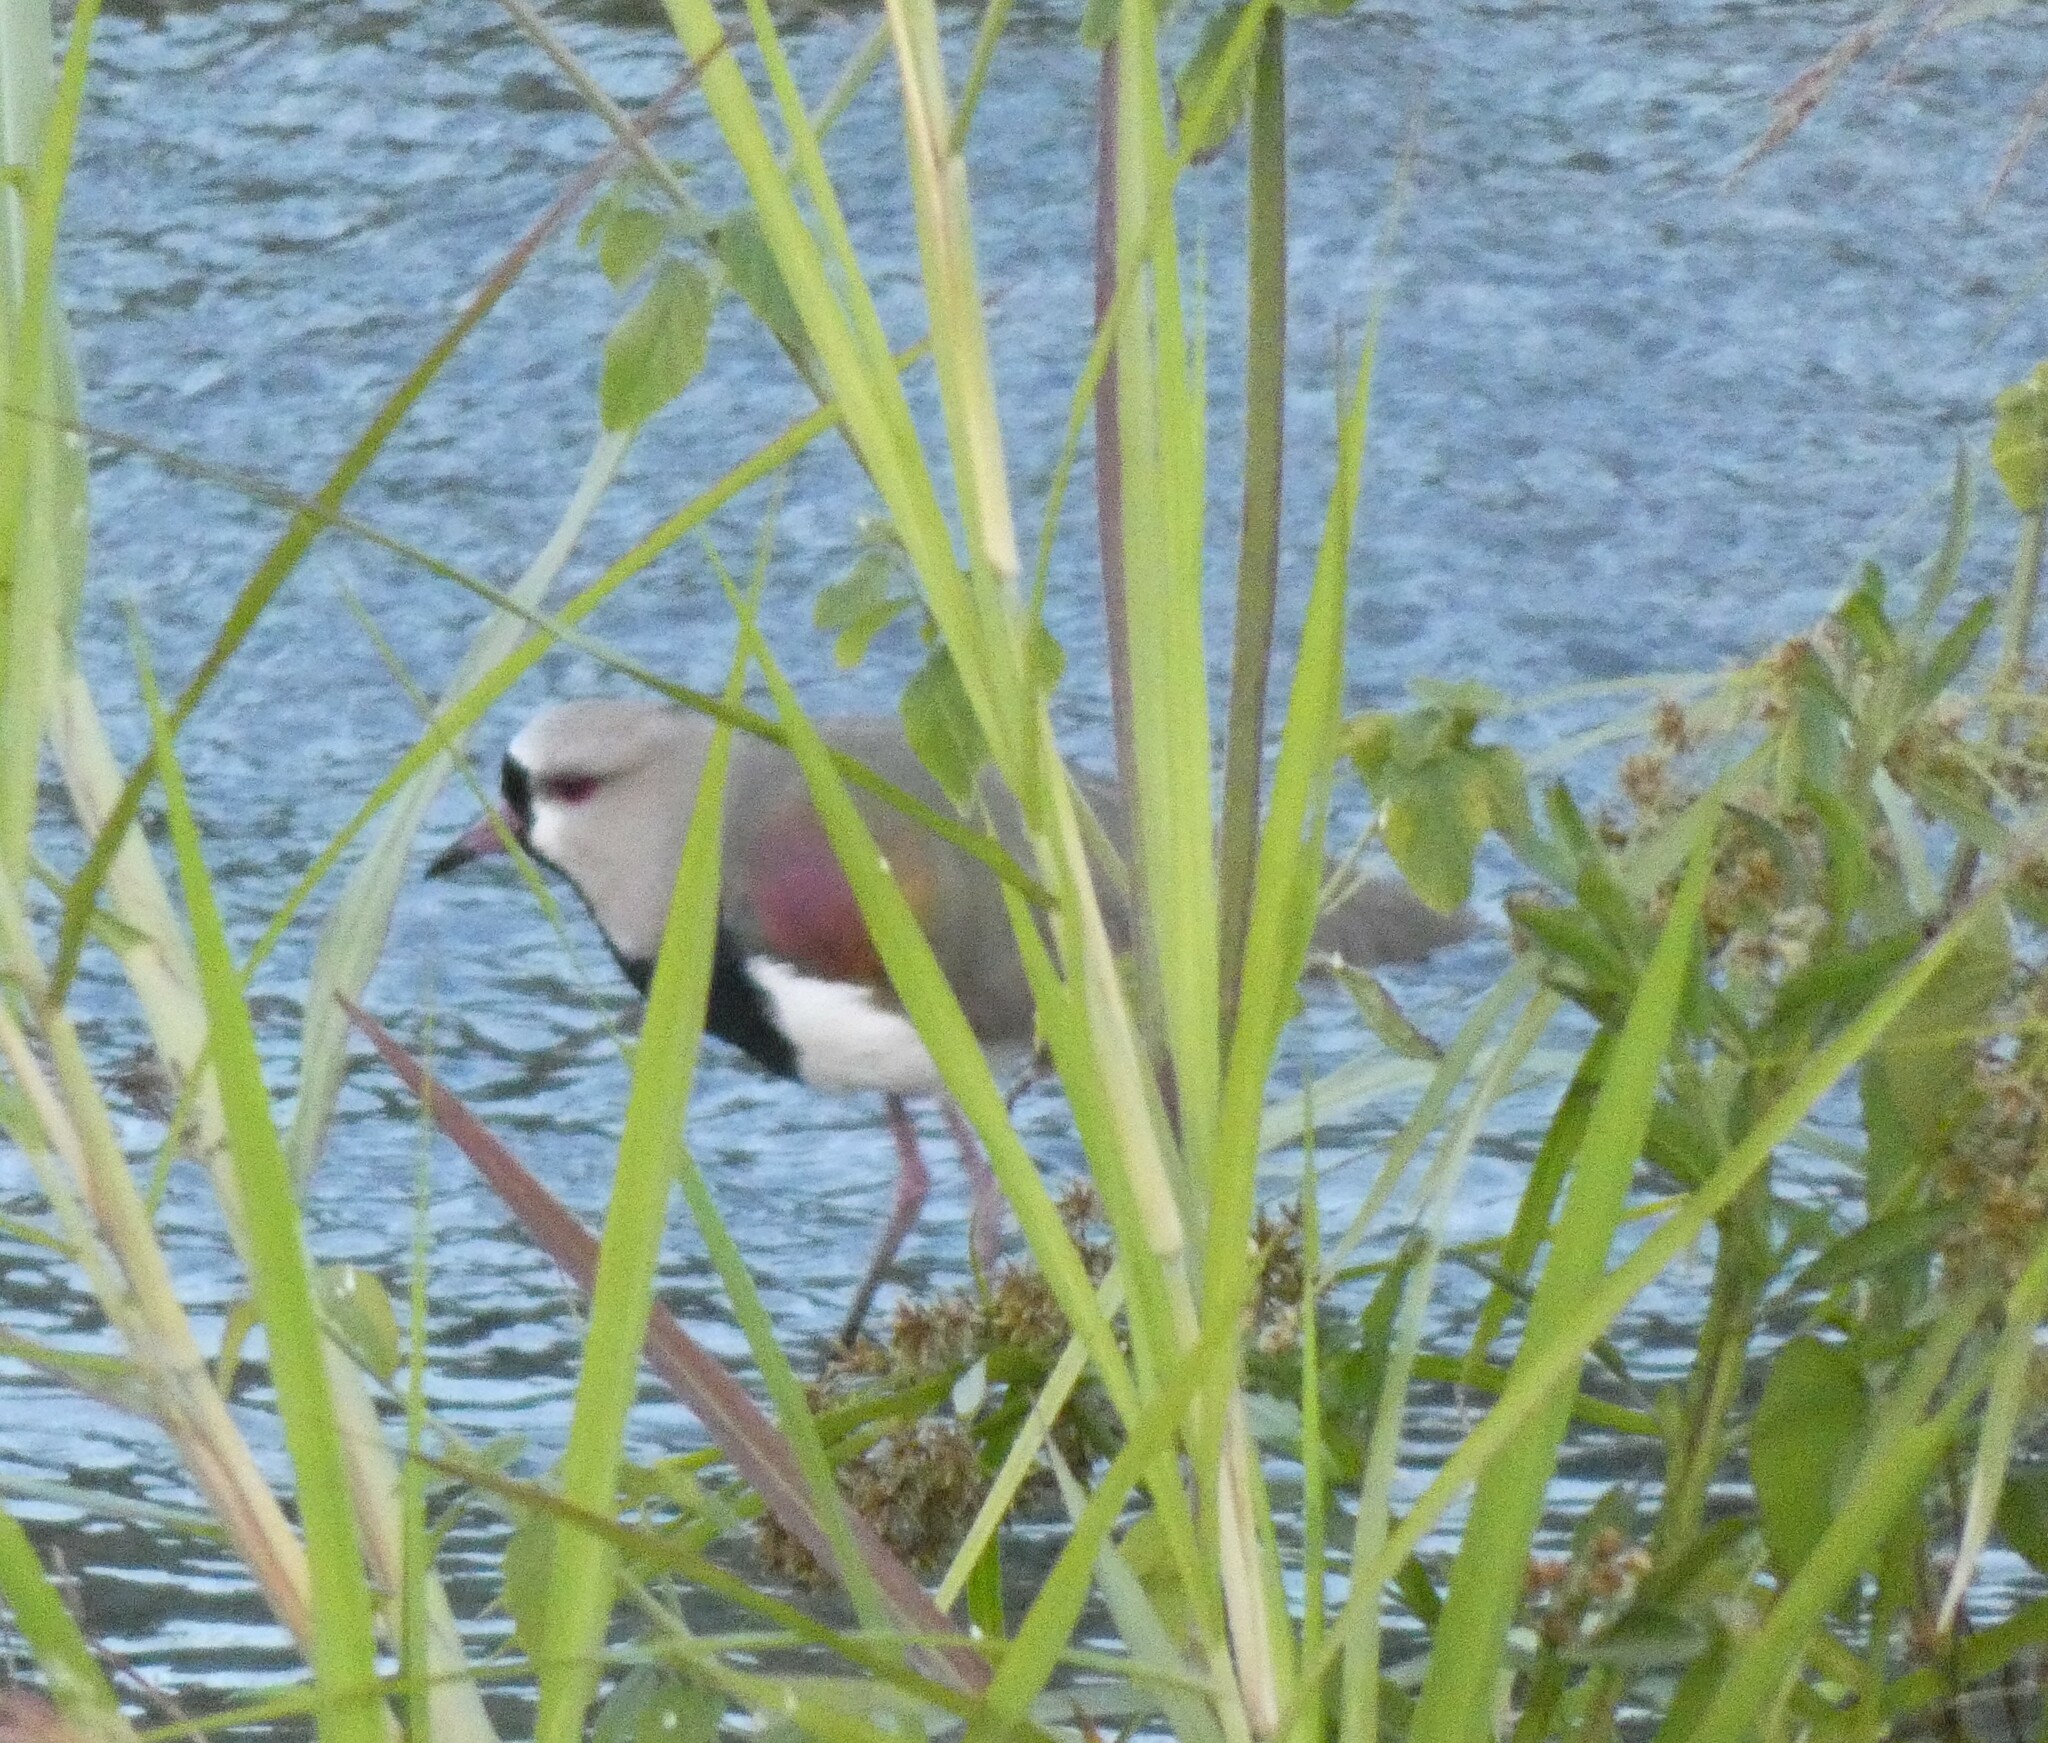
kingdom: Animalia
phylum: Chordata
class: Aves
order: Charadriiformes
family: Charadriidae
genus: Vanellus
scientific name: Vanellus chilensis
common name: Southern lapwing
